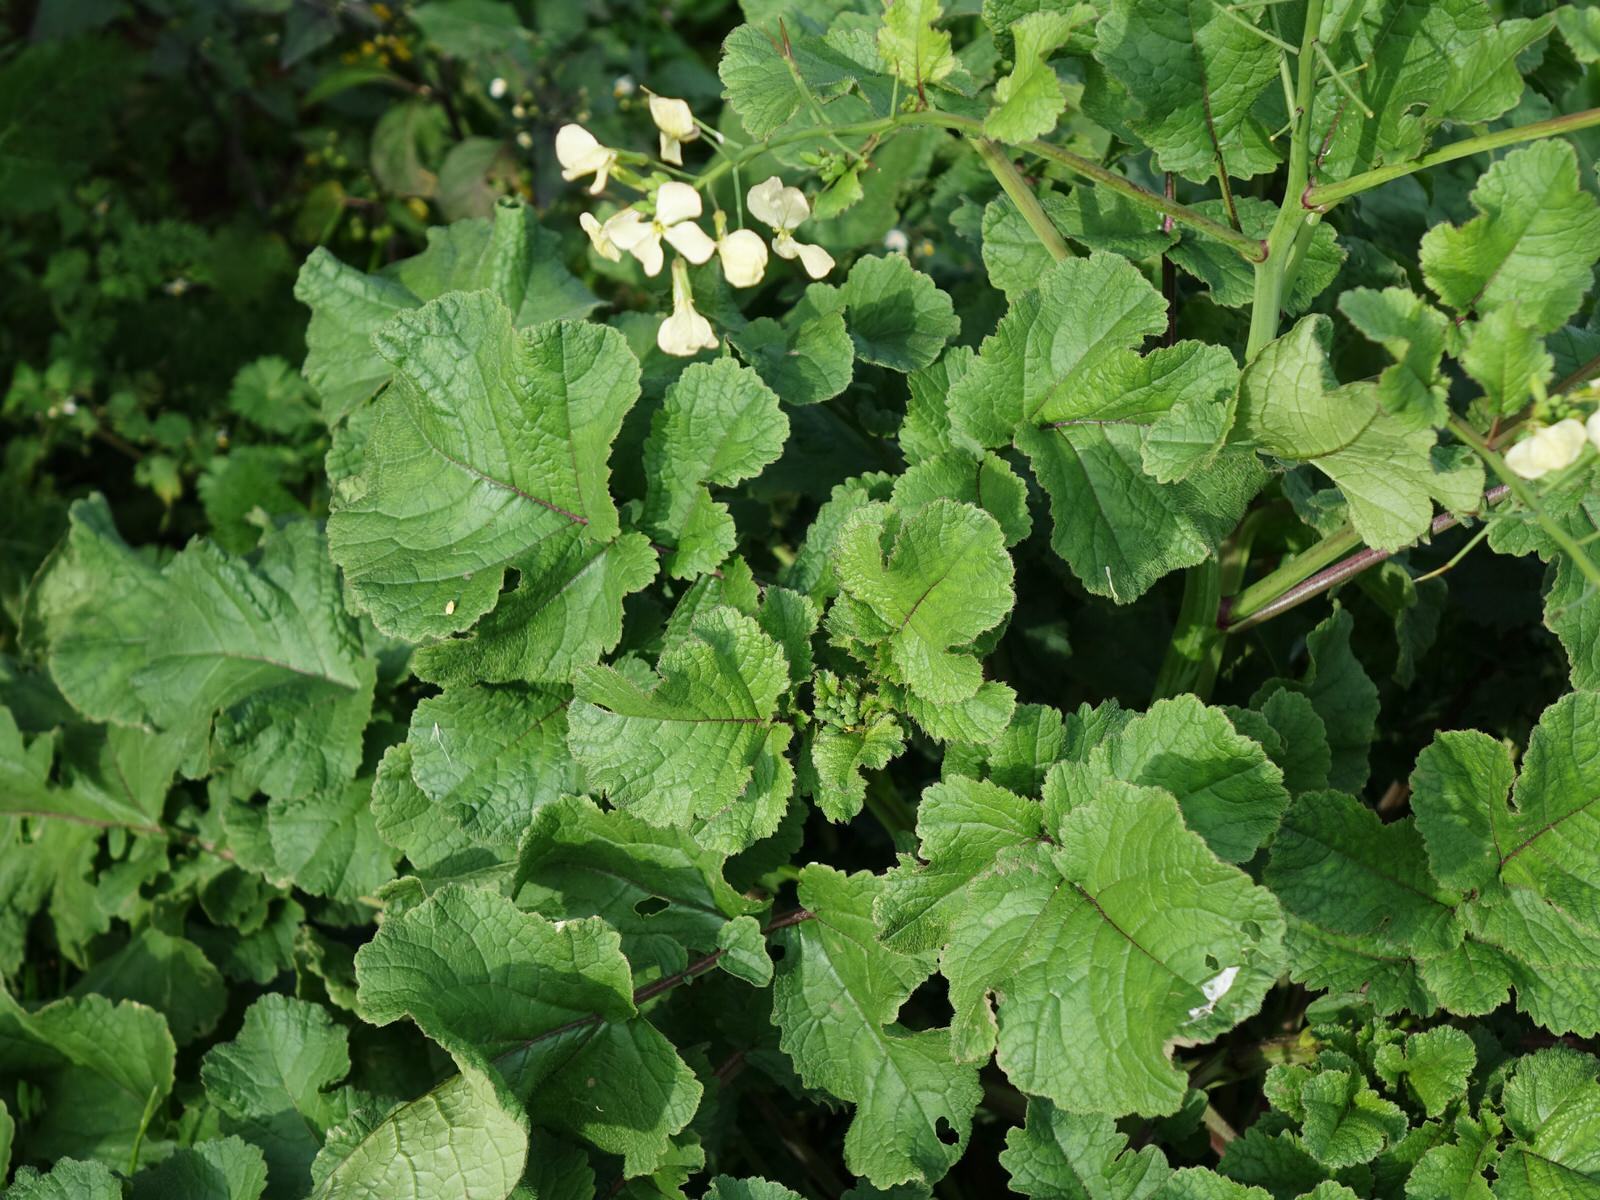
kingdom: Plantae
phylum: Tracheophyta
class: Magnoliopsida
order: Brassicales
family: Brassicaceae
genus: Raphanus
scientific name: Raphanus raphanistrum
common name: Wild radish
